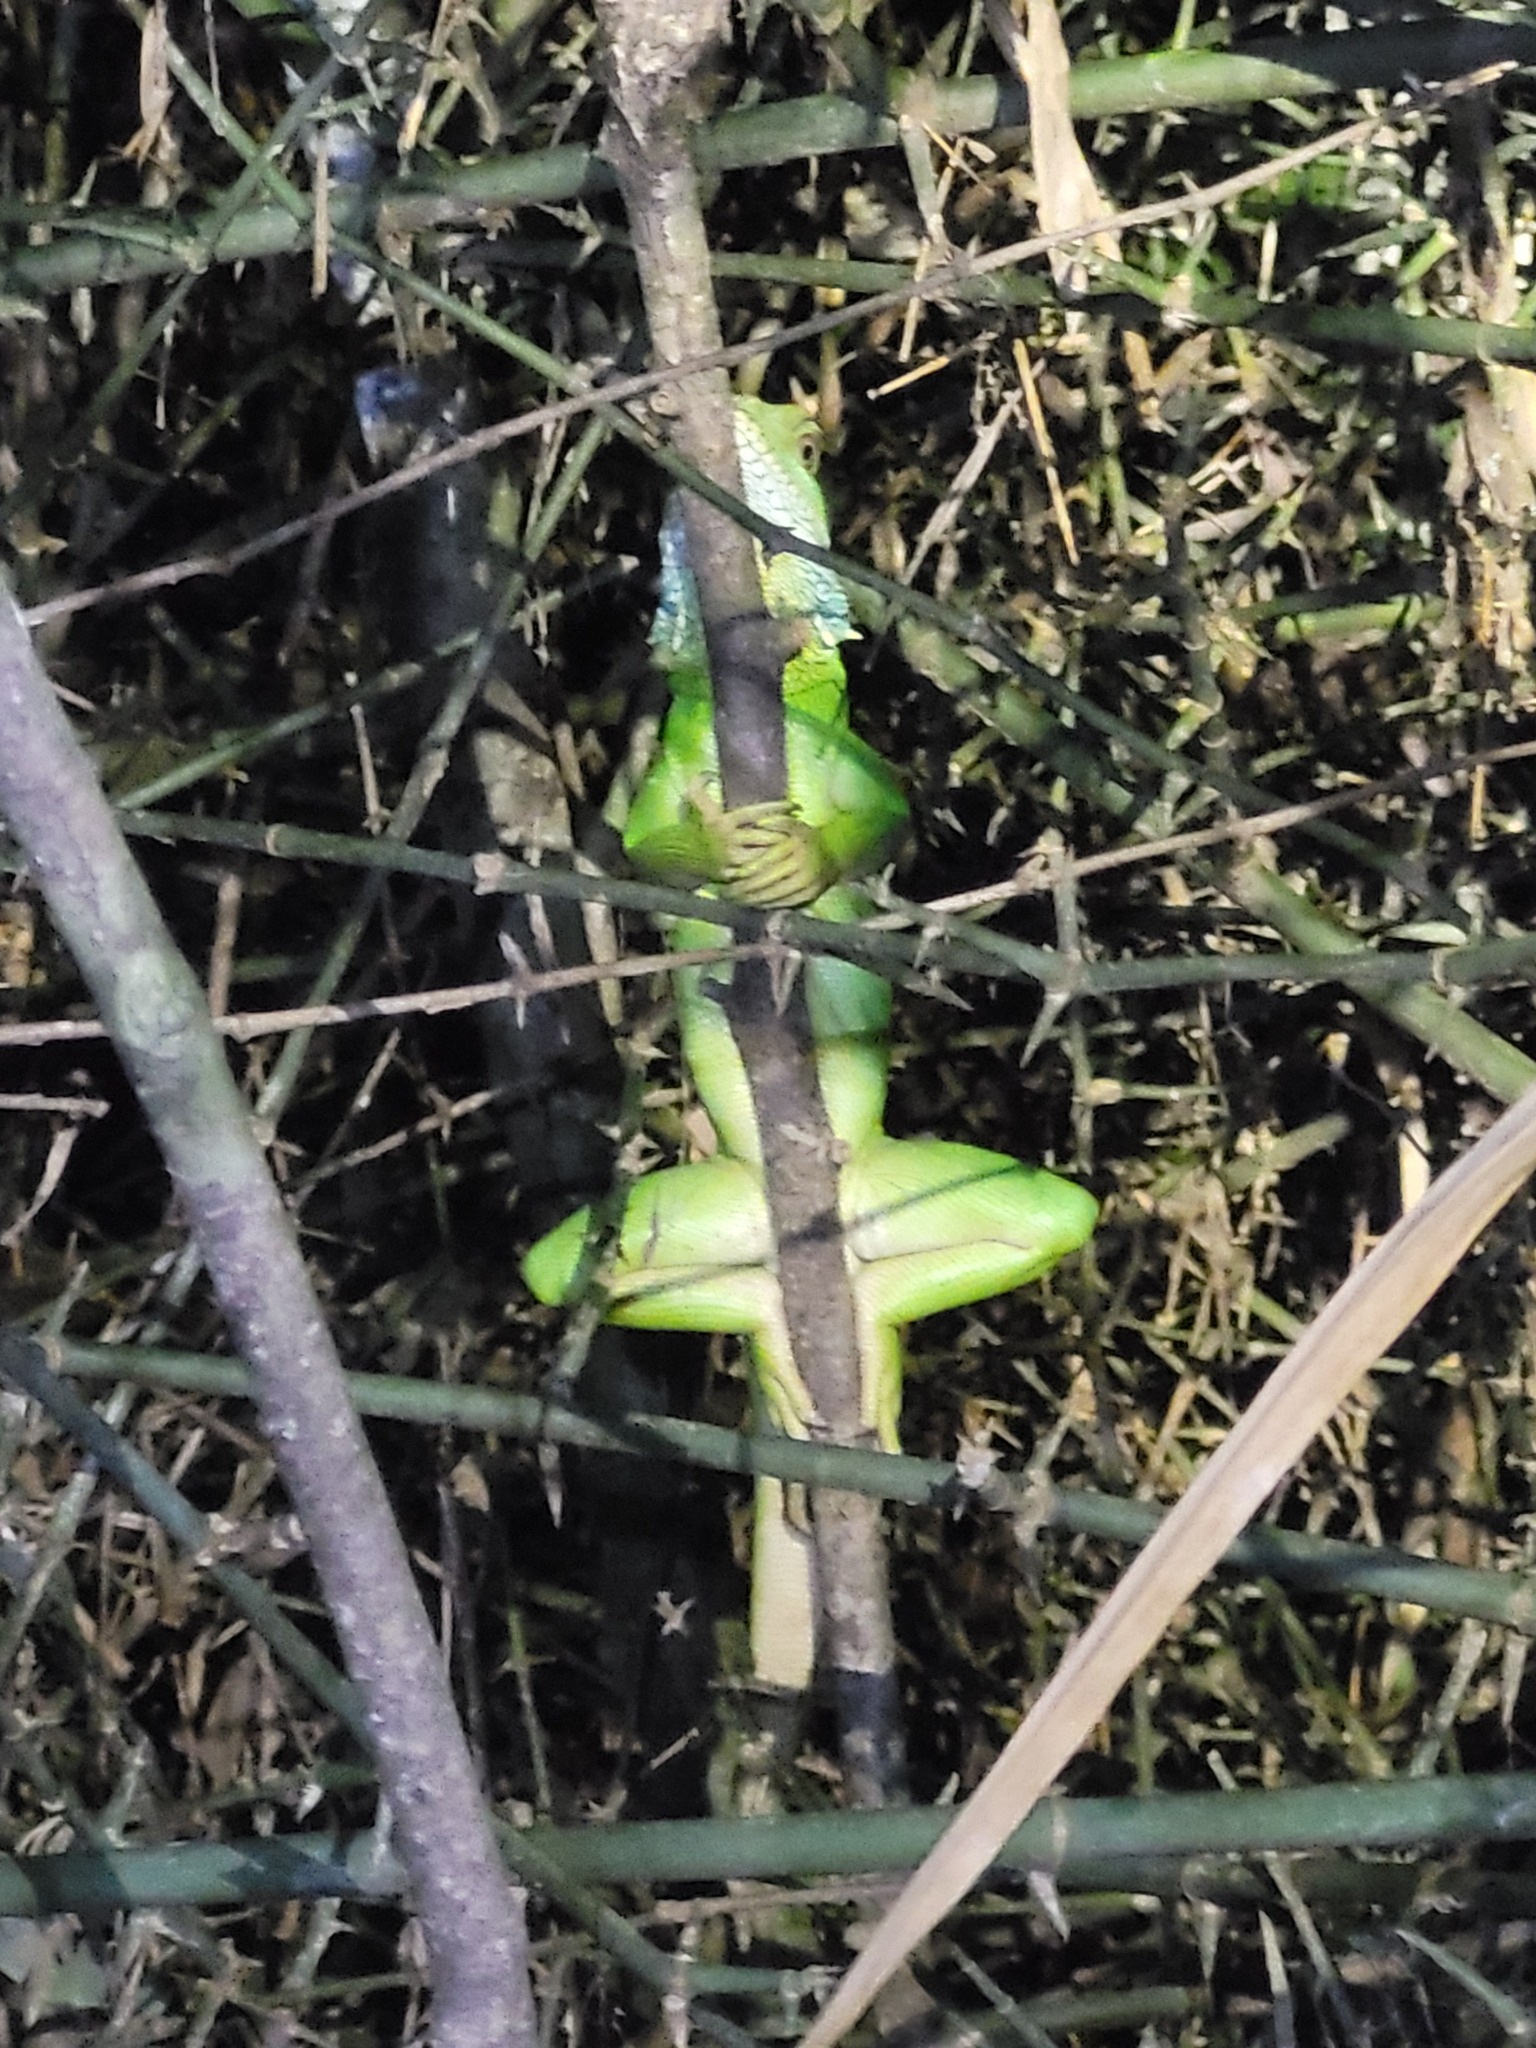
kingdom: Animalia
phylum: Chordata
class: Squamata
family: Agamidae
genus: Physignathus
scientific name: Physignathus cocincinus
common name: Asian water dragon
